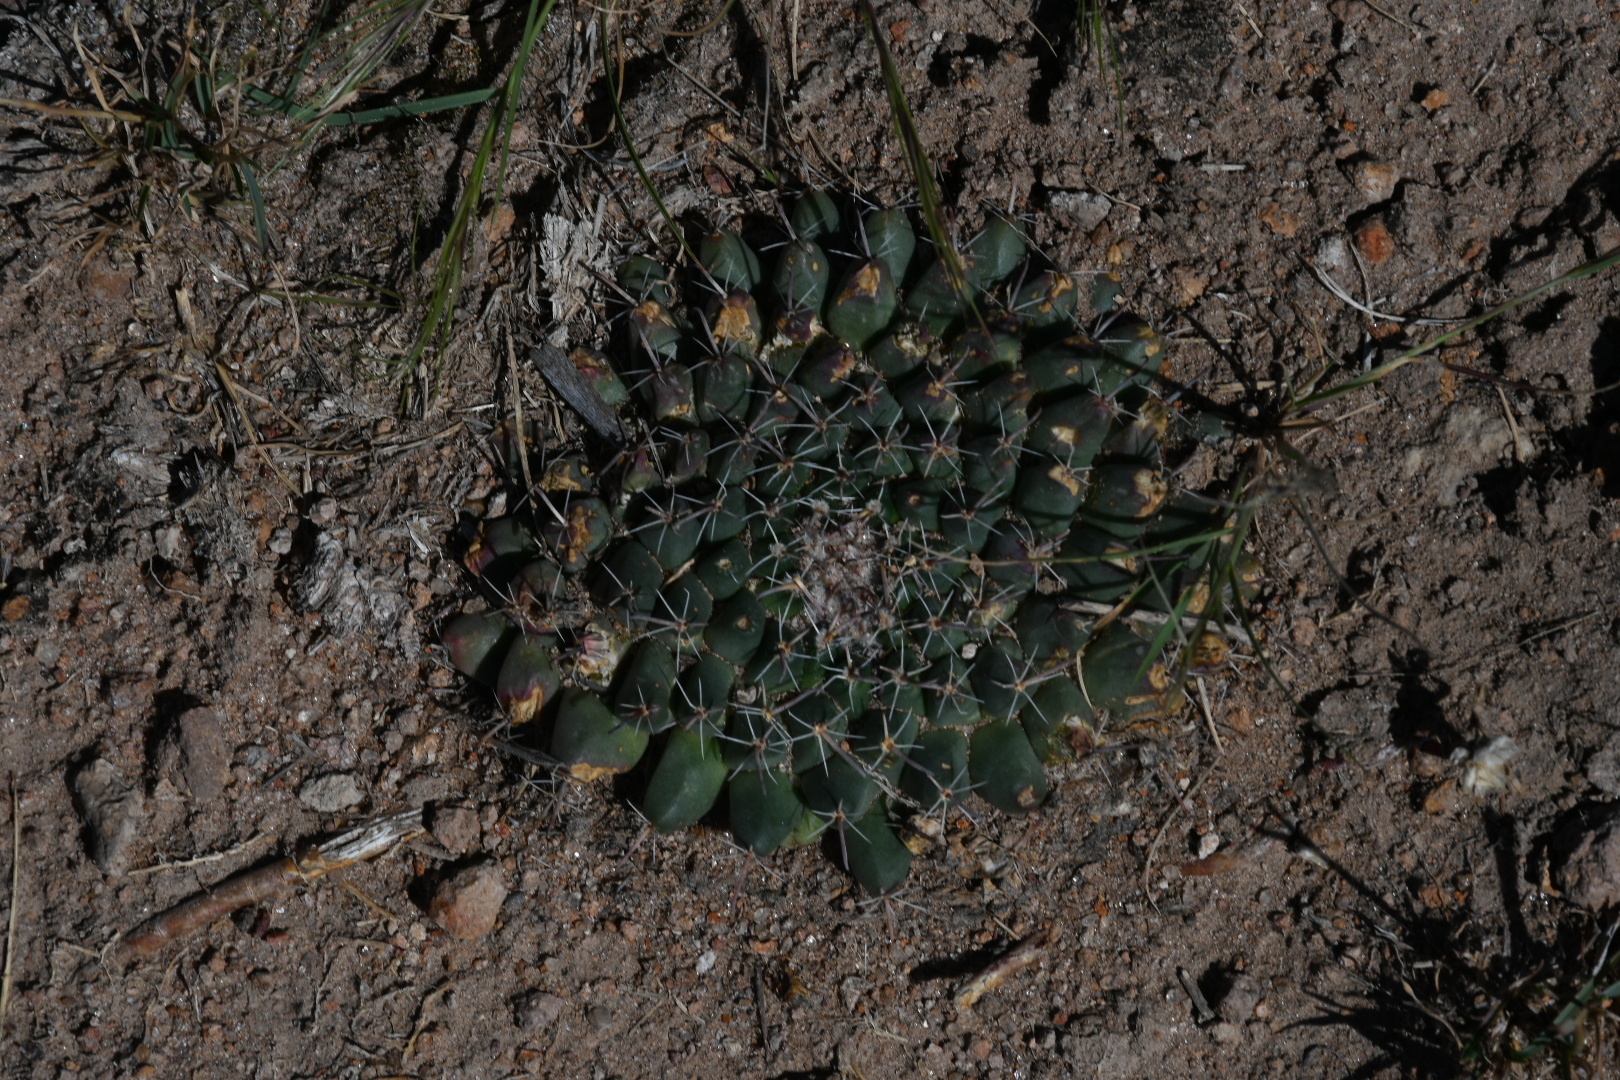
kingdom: Plantae
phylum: Tracheophyta
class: Magnoliopsida
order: Caryophyllales
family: Cactaceae
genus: Mammillaria
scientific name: Mammillaria uncinata
